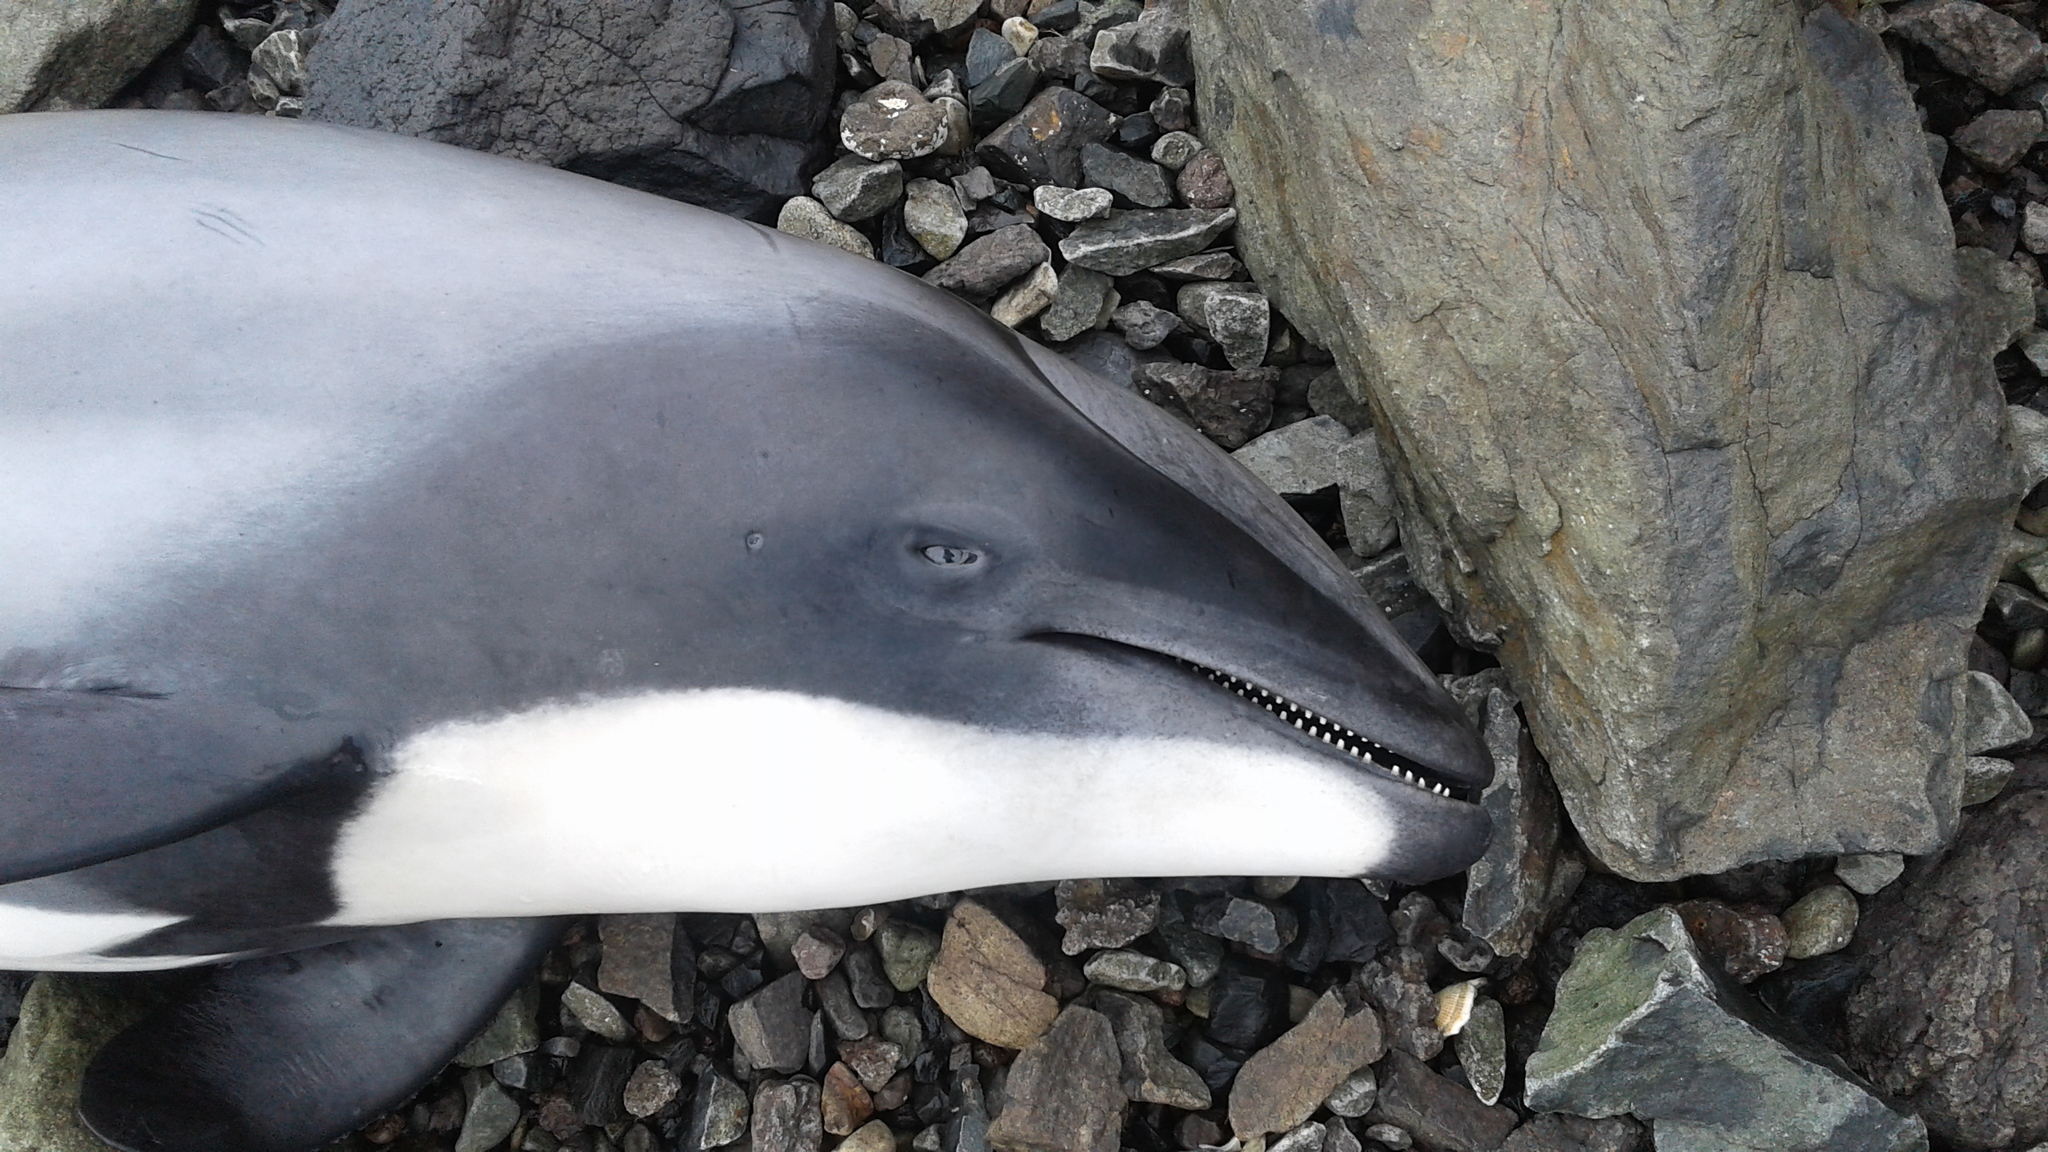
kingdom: Animalia
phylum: Chordata
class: Mammalia
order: Cetacea
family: Delphinidae
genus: Cephalorhynchus
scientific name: Cephalorhynchus hectori
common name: Hector's dolphin
